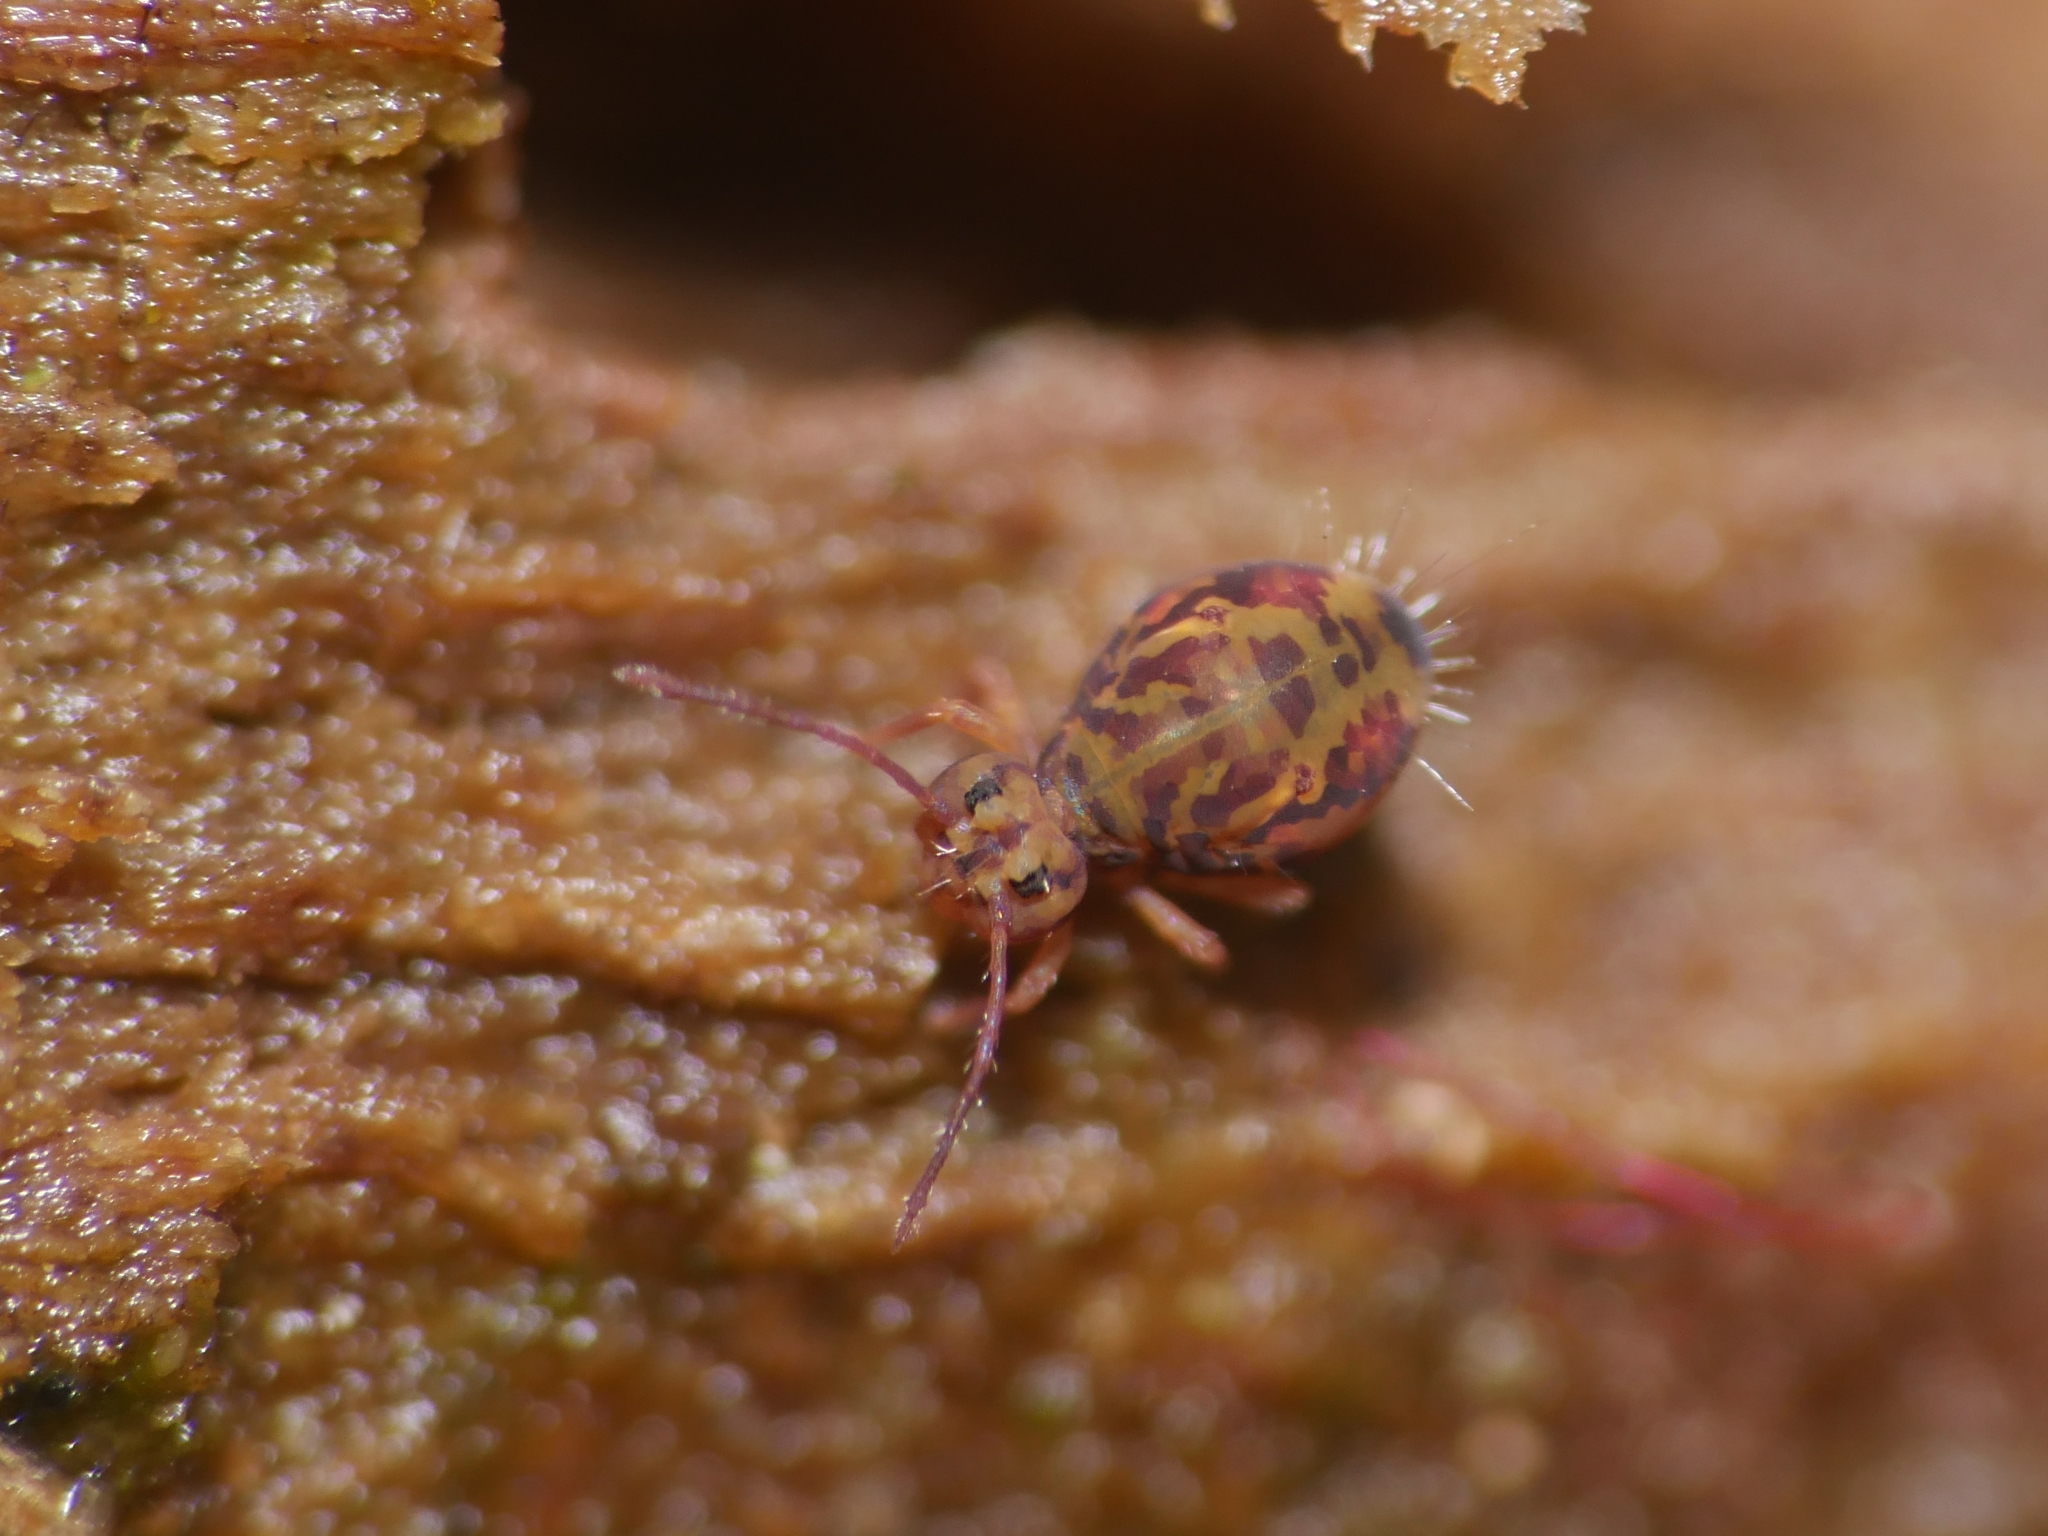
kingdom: Animalia
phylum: Arthropoda
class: Collembola
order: Symphypleona
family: Dicyrtomidae
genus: Dicyrtomina
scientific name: Dicyrtomina ornata
